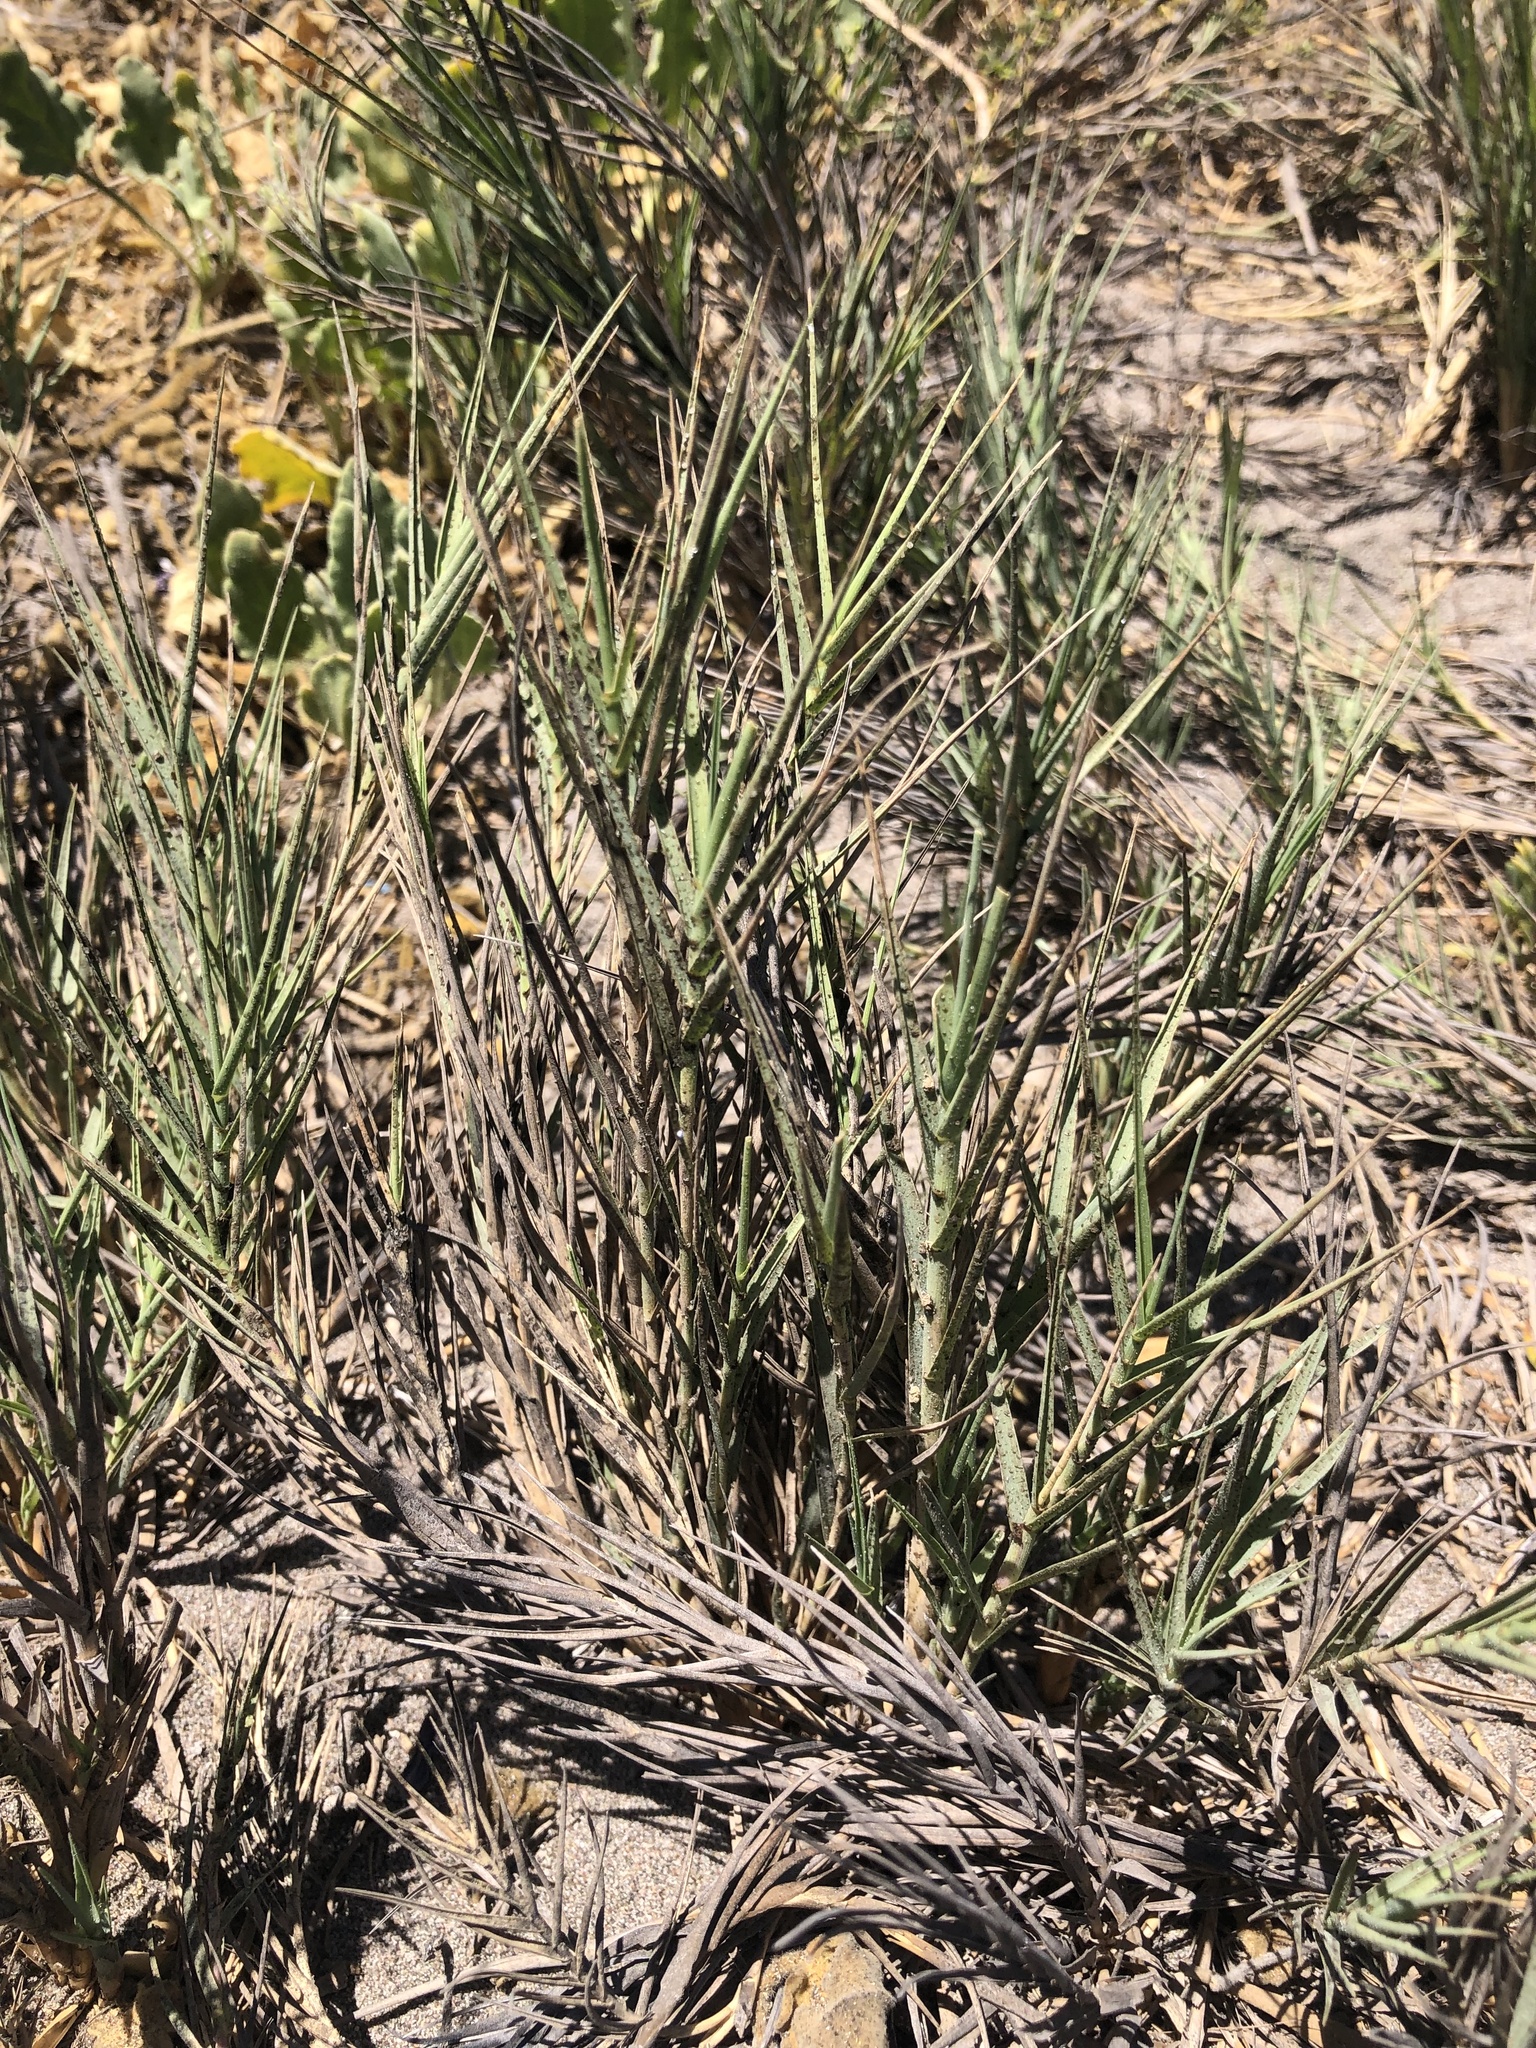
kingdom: Plantae
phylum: Tracheophyta
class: Liliopsida
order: Poales
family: Poaceae
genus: Distichlis
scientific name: Distichlis spicata
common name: Saltgrass
